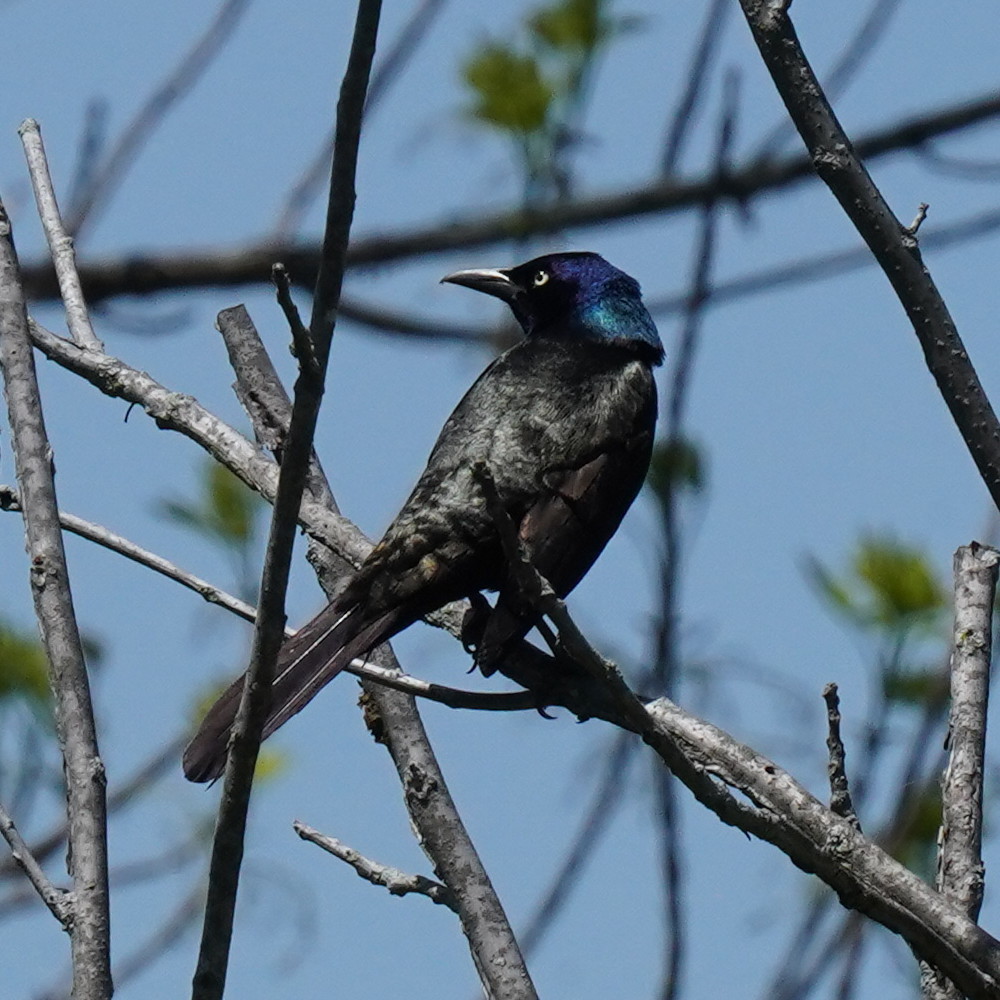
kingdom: Animalia
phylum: Chordata
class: Aves
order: Passeriformes
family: Icteridae
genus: Quiscalus
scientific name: Quiscalus quiscula
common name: Common grackle
